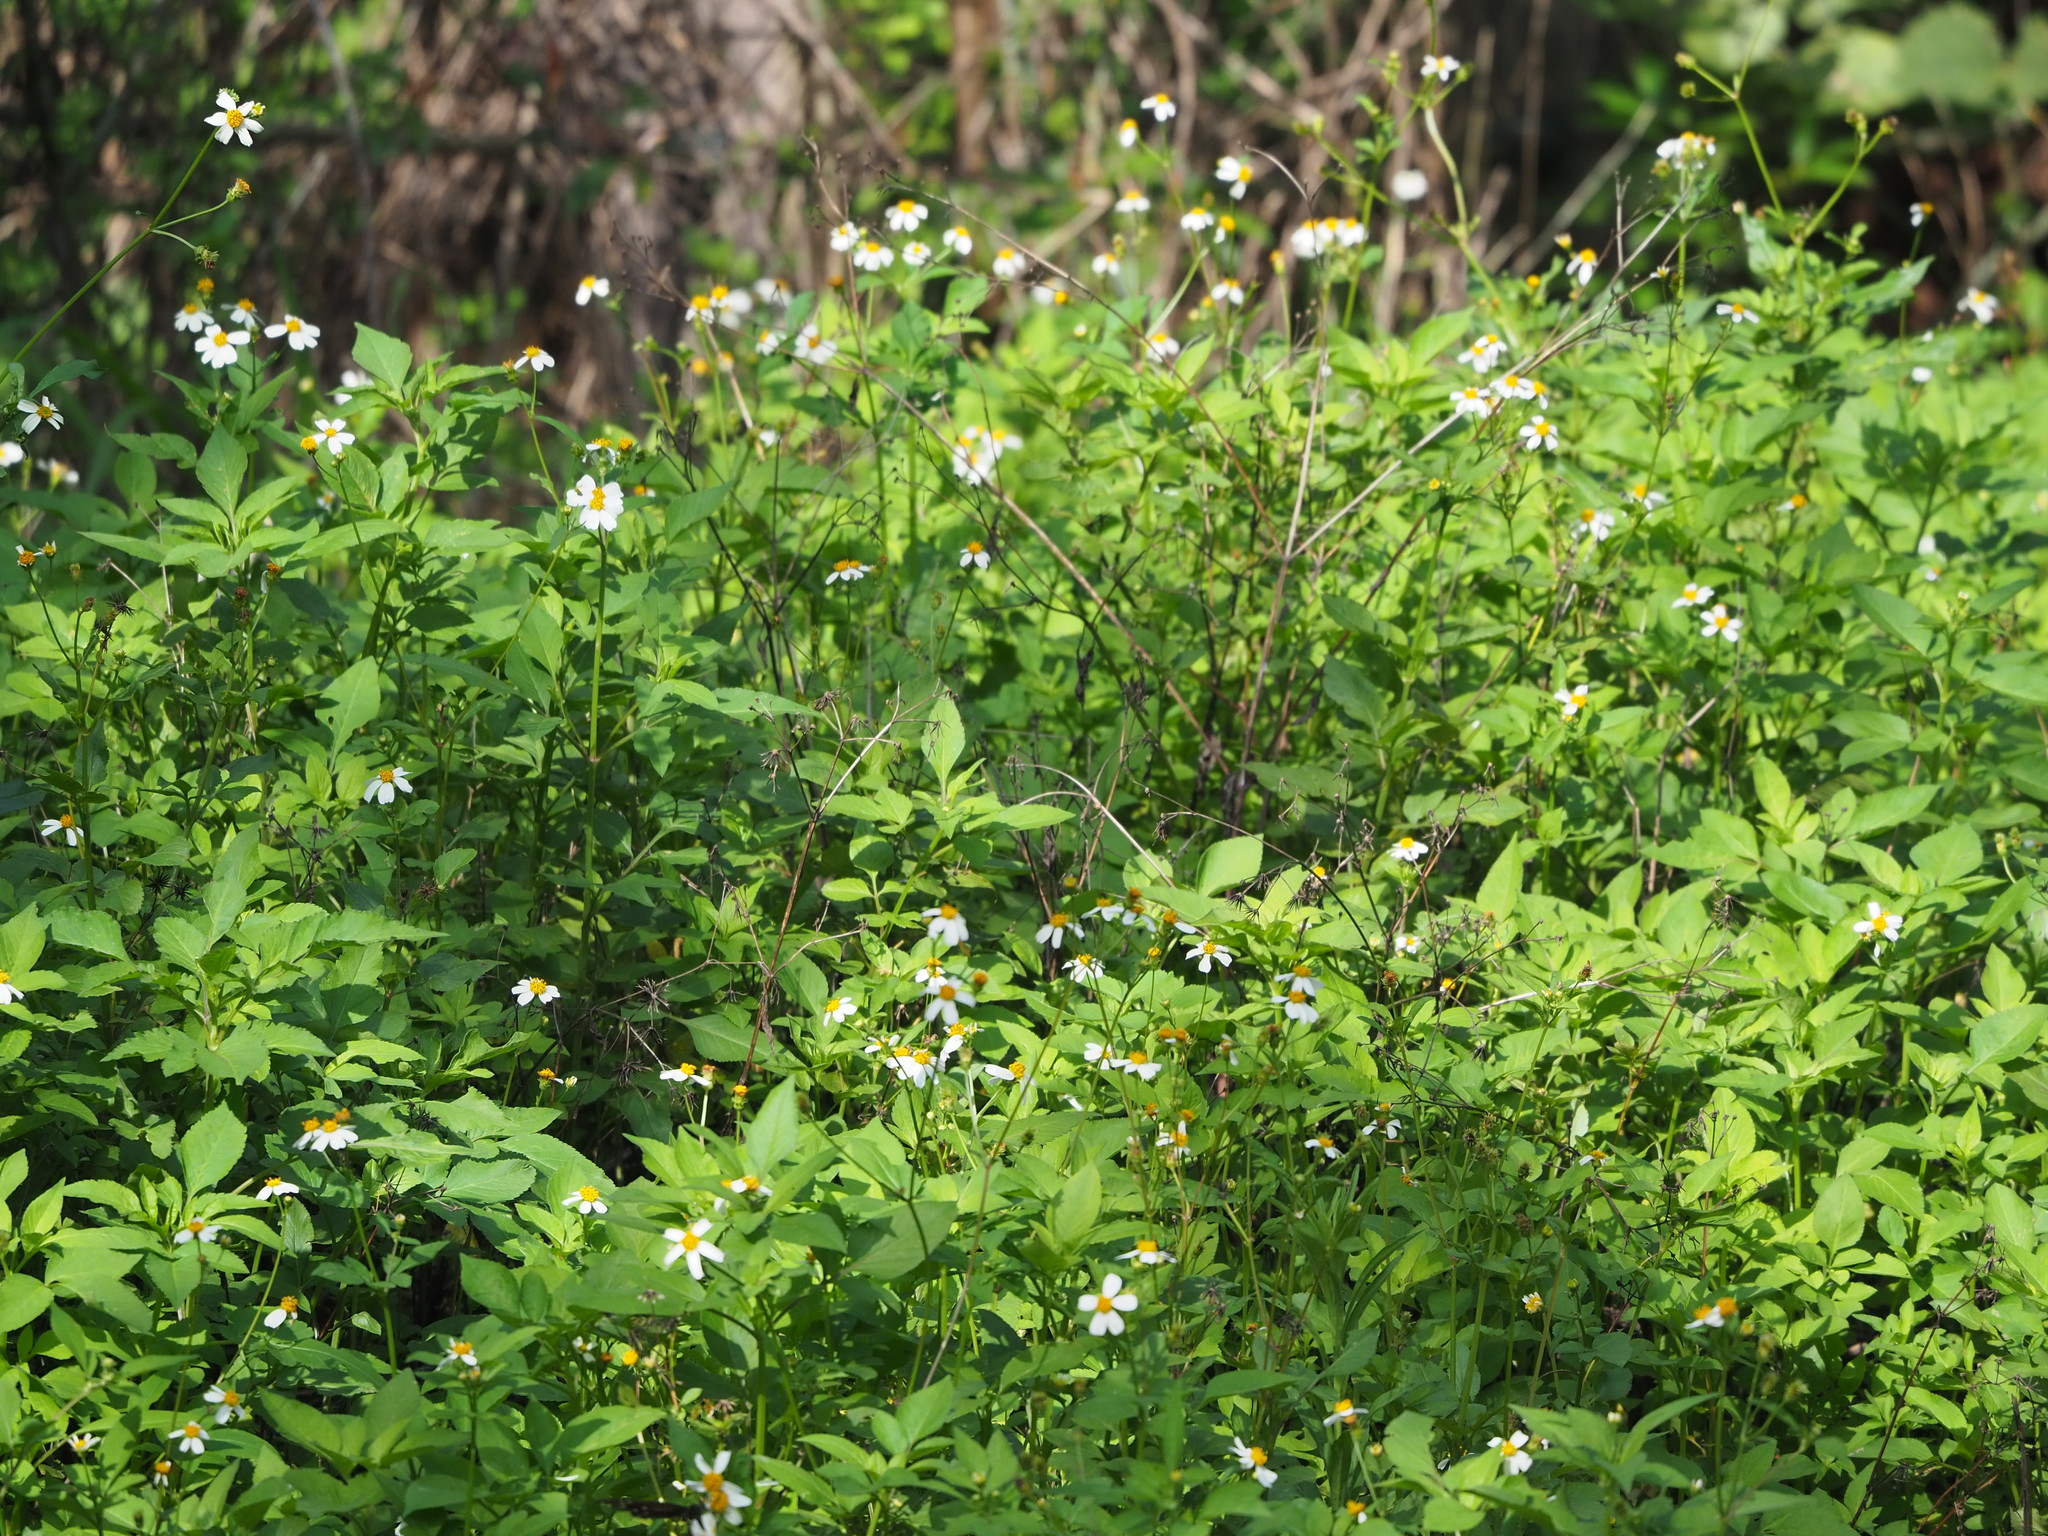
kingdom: Plantae
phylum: Tracheophyta
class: Magnoliopsida
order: Asterales
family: Asteraceae
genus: Bidens
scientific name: Bidens alba
